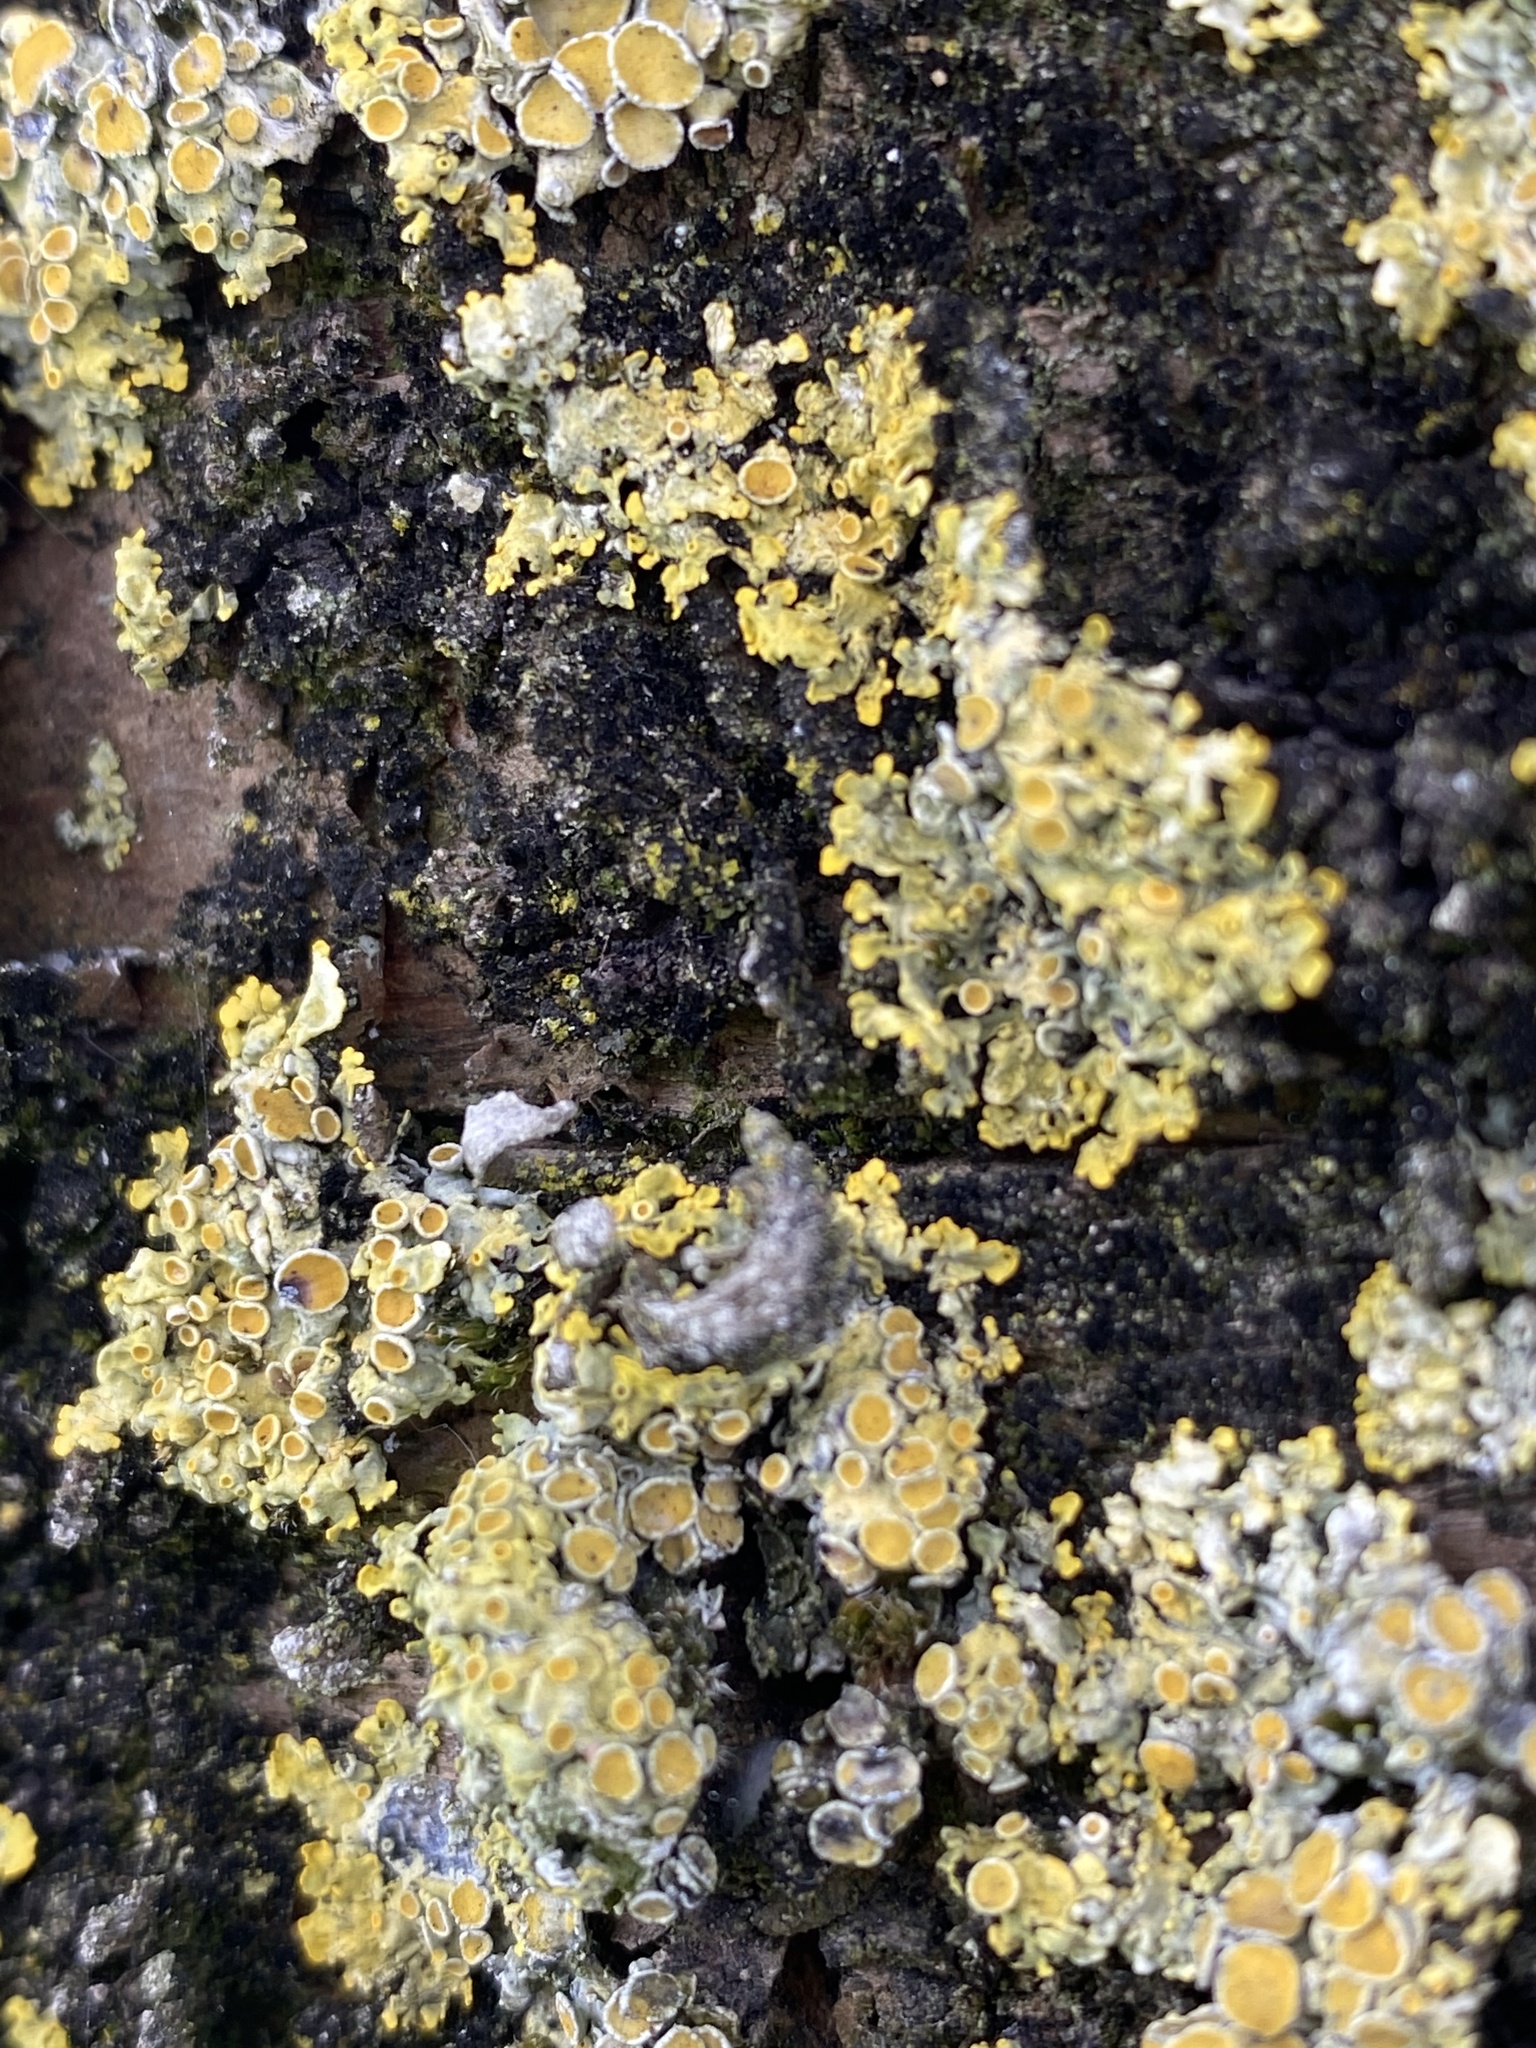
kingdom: Fungi
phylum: Ascomycota
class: Lecanoromycetes
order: Teloschistales
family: Teloschistaceae
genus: Xanthoria
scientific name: Xanthoria parietina
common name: Common orange lichen
